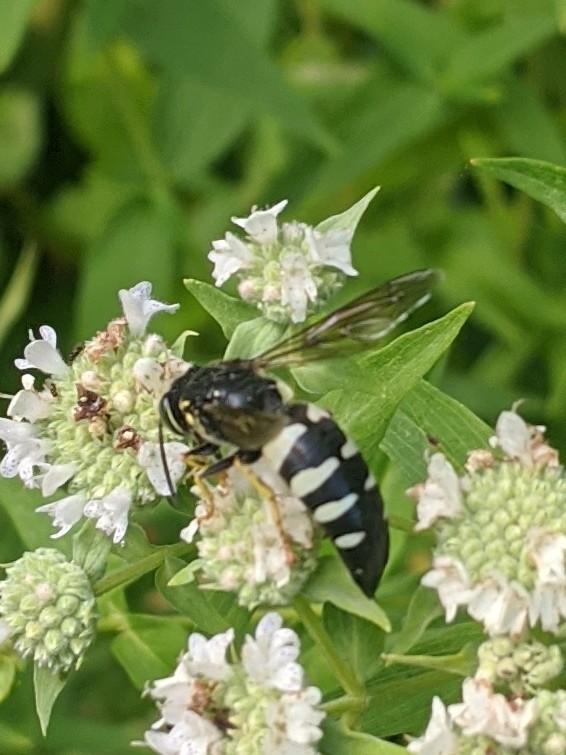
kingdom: Animalia
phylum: Arthropoda
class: Insecta
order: Hymenoptera
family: Crabronidae
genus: Bicyrtes
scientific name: Bicyrtes quadrifasciatus
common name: Four-banded stink bug hunter wasp
